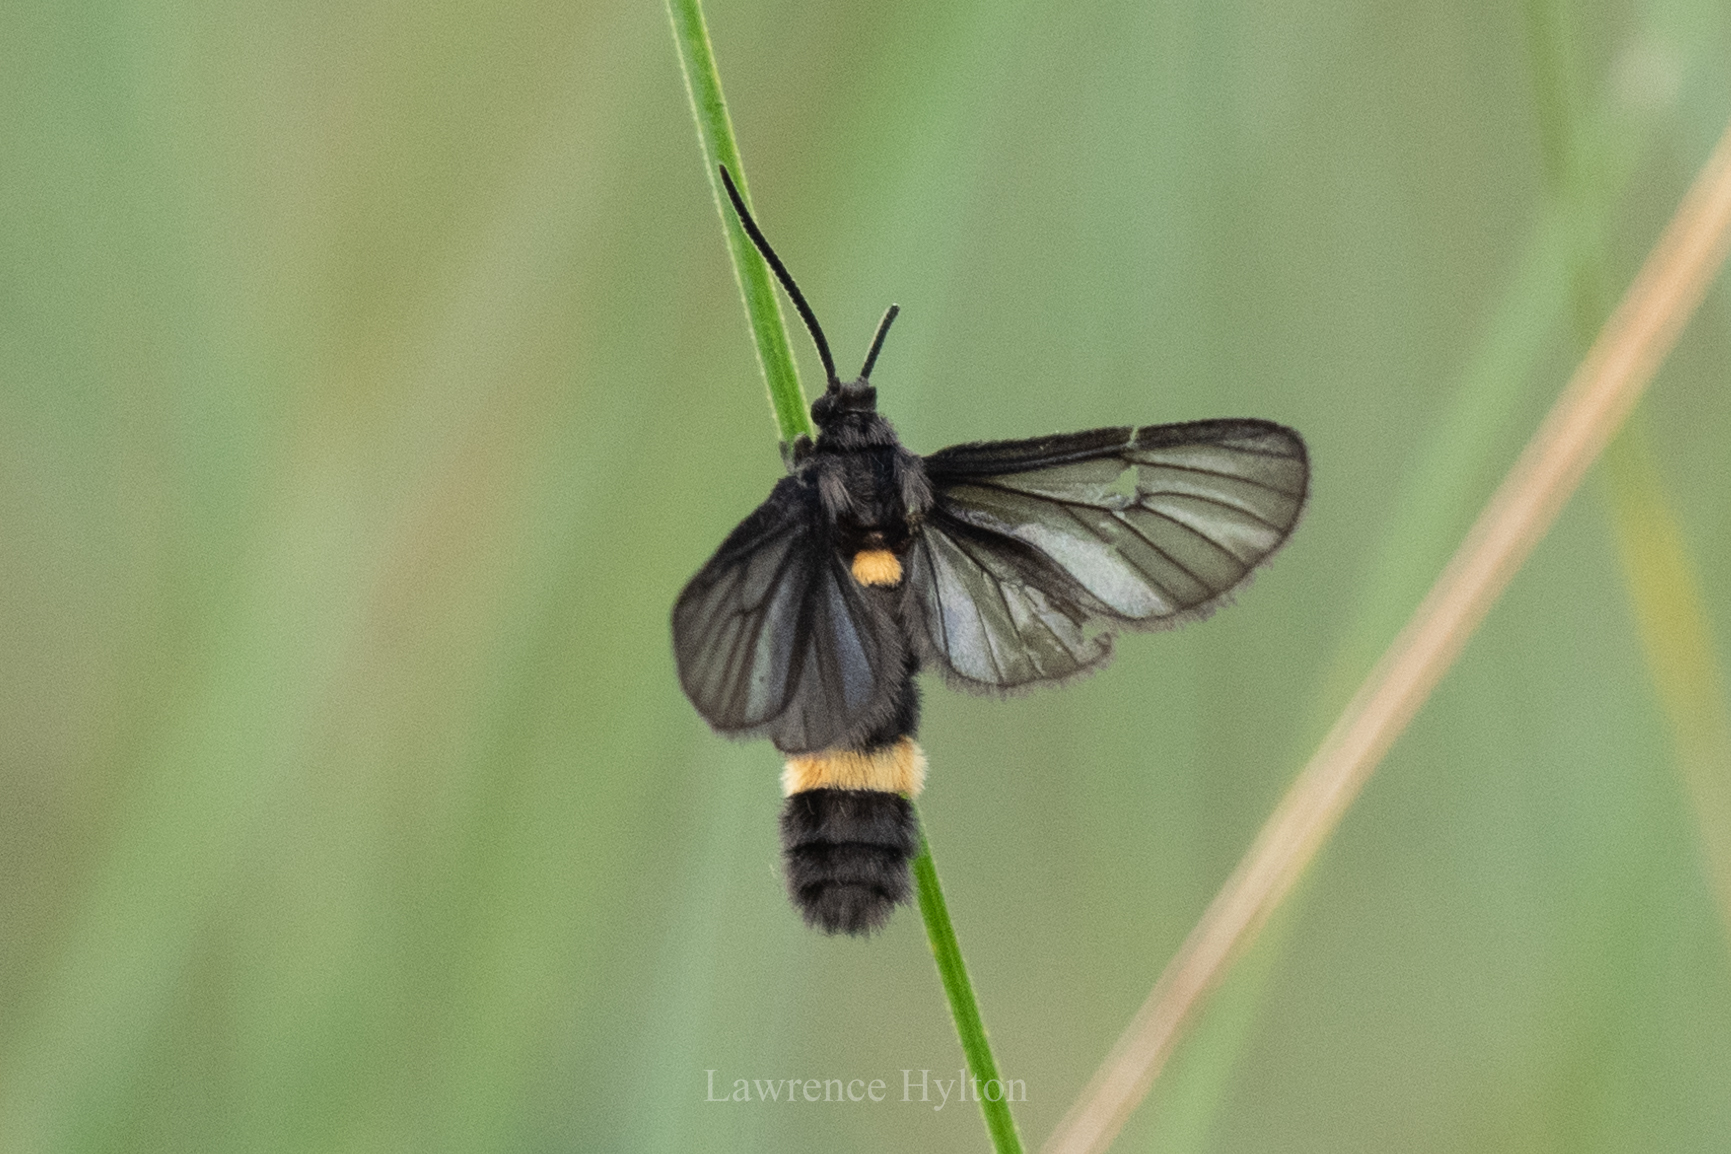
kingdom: Animalia
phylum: Arthropoda
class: Insecta
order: Lepidoptera
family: Erebidae
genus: Psichotoe
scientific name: Psichotoe duvauceli
